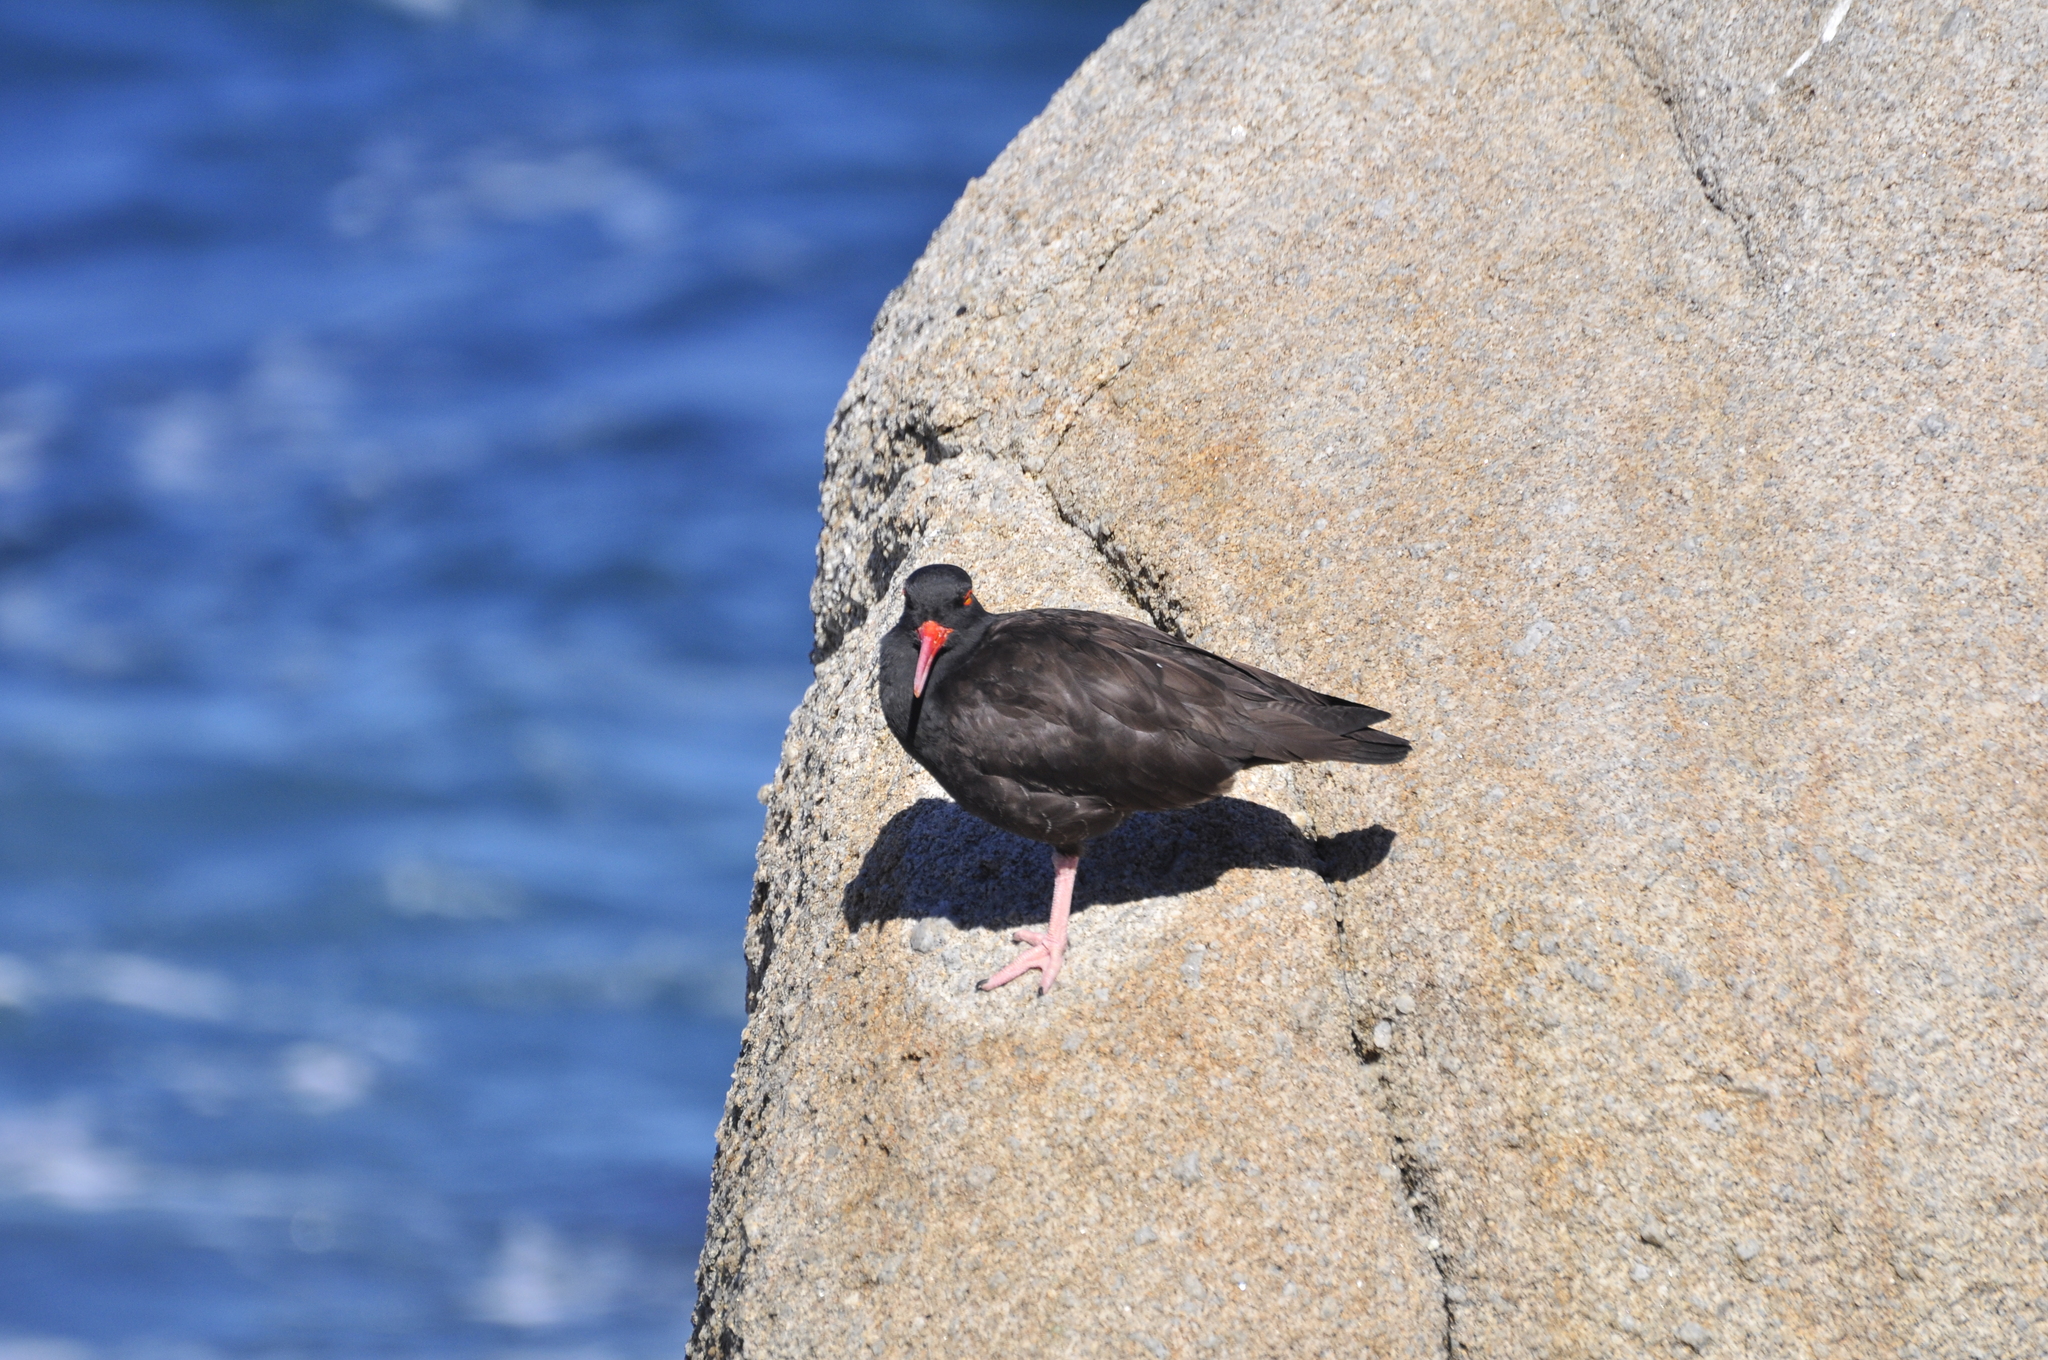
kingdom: Animalia
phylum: Chordata
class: Aves
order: Charadriiformes
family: Haematopodidae
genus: Haematopus
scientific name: Haematopus bachmani
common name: Black oystercatcher
